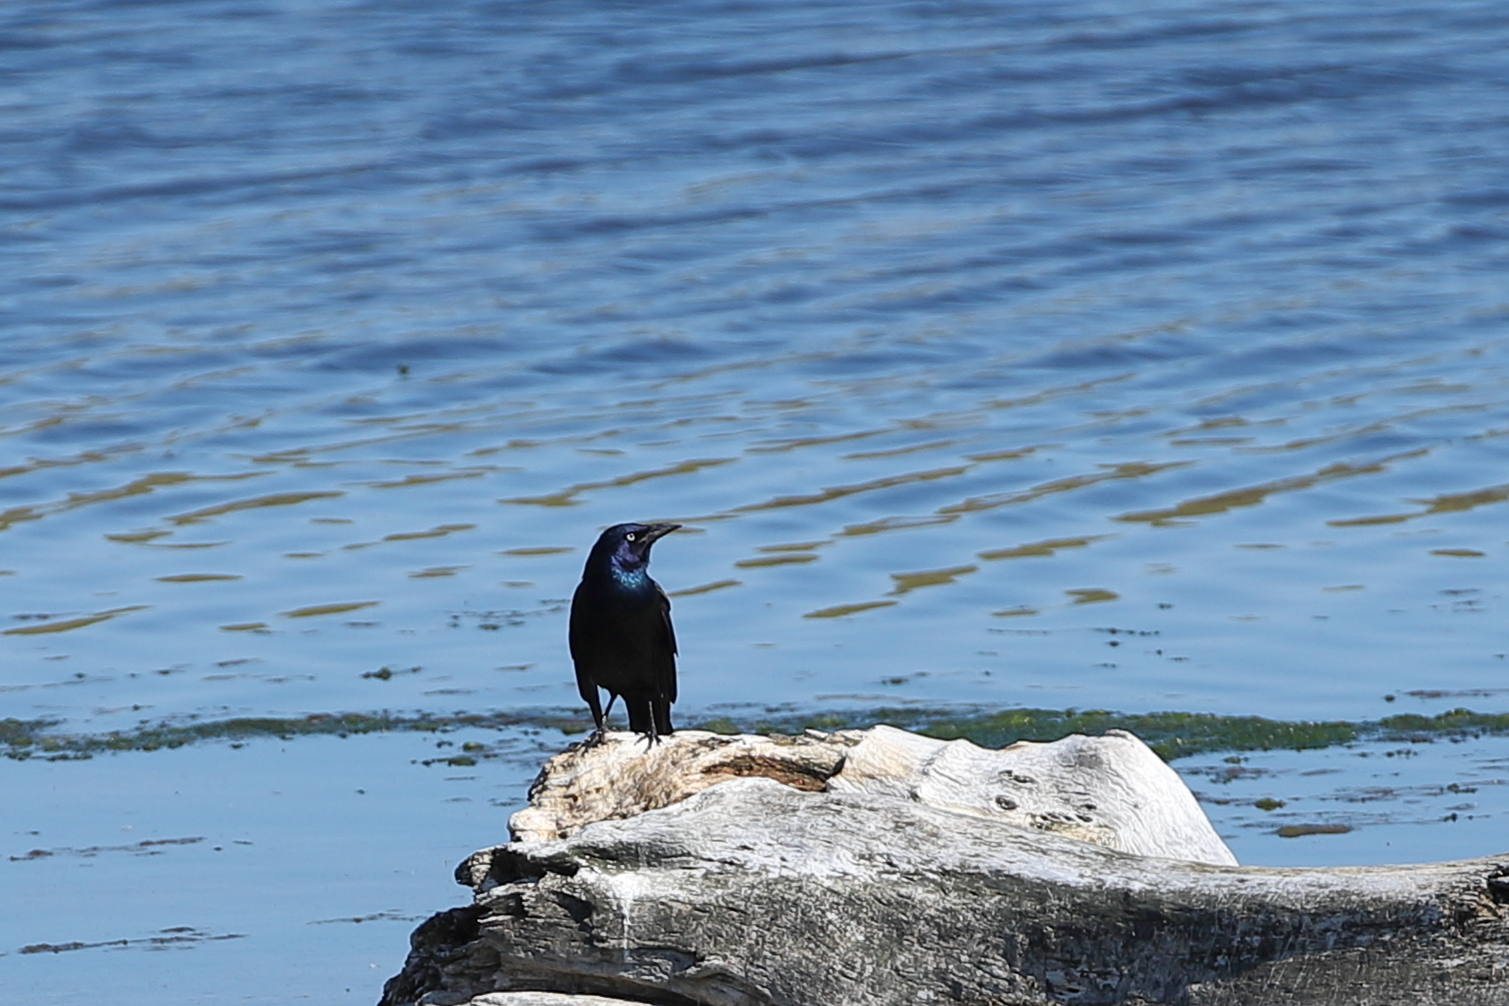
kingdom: Animalia
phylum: Chordata
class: Aves
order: Passeriformes
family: Icteridae
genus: Quiscalus
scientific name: Quiscalus quiscula
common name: Common grackle
